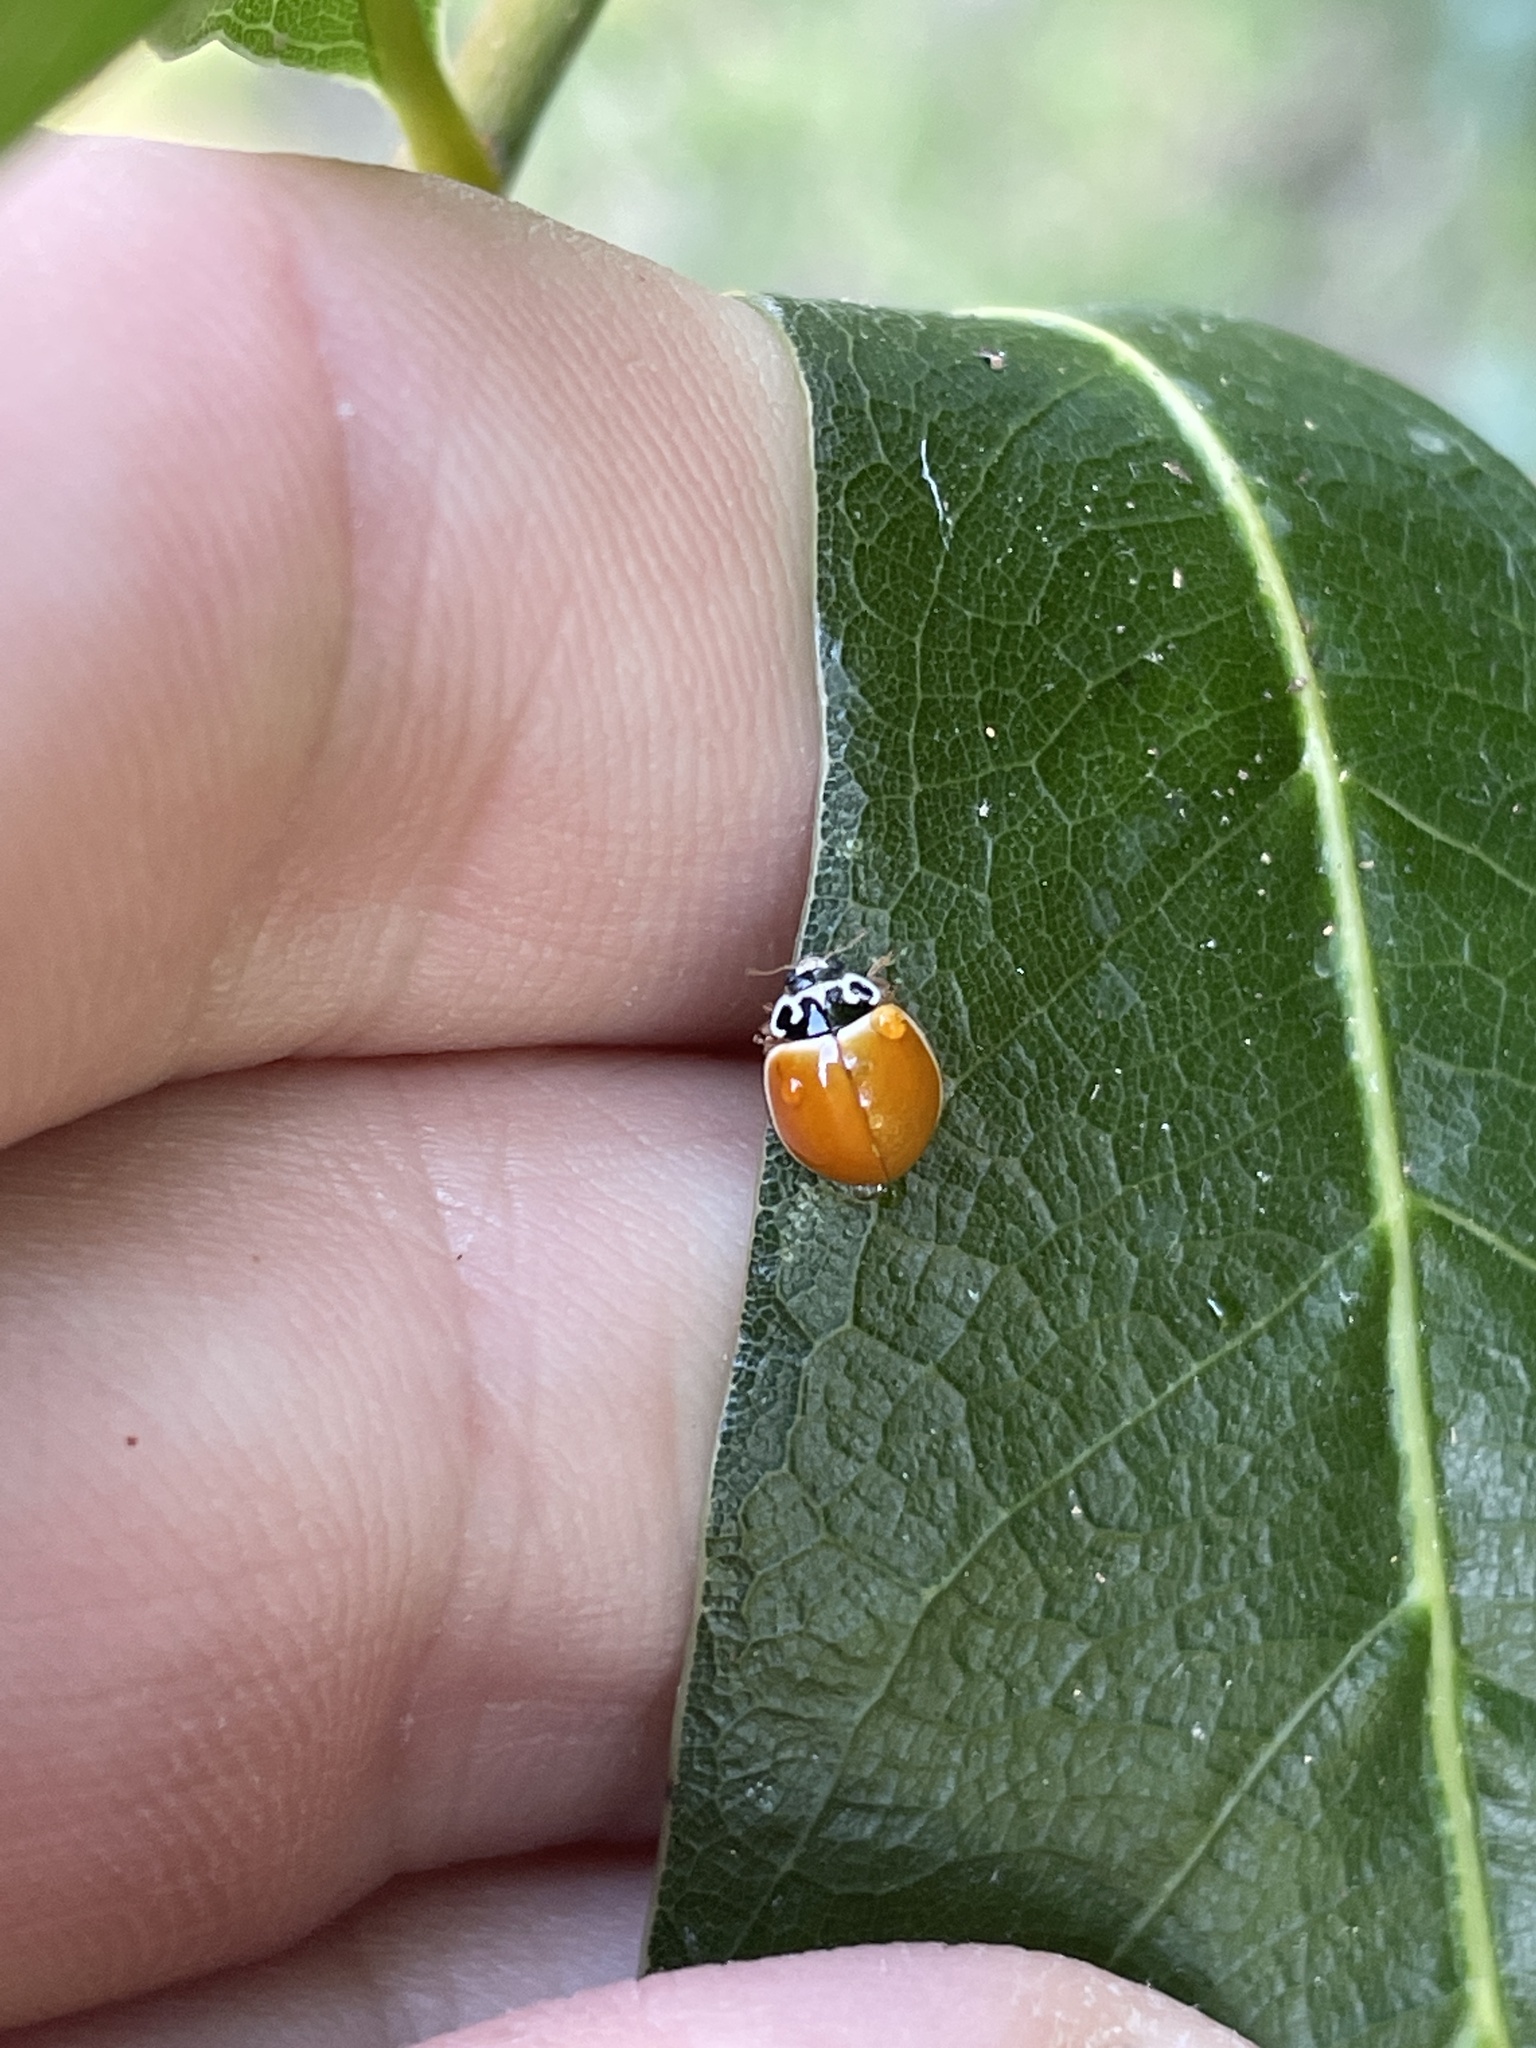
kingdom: Animalia
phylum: Arthropoda
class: Insecta
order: Coleoptera
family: Coccinellidae
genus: Cycloneda
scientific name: Cycloneda munda
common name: Polished lady beetle
